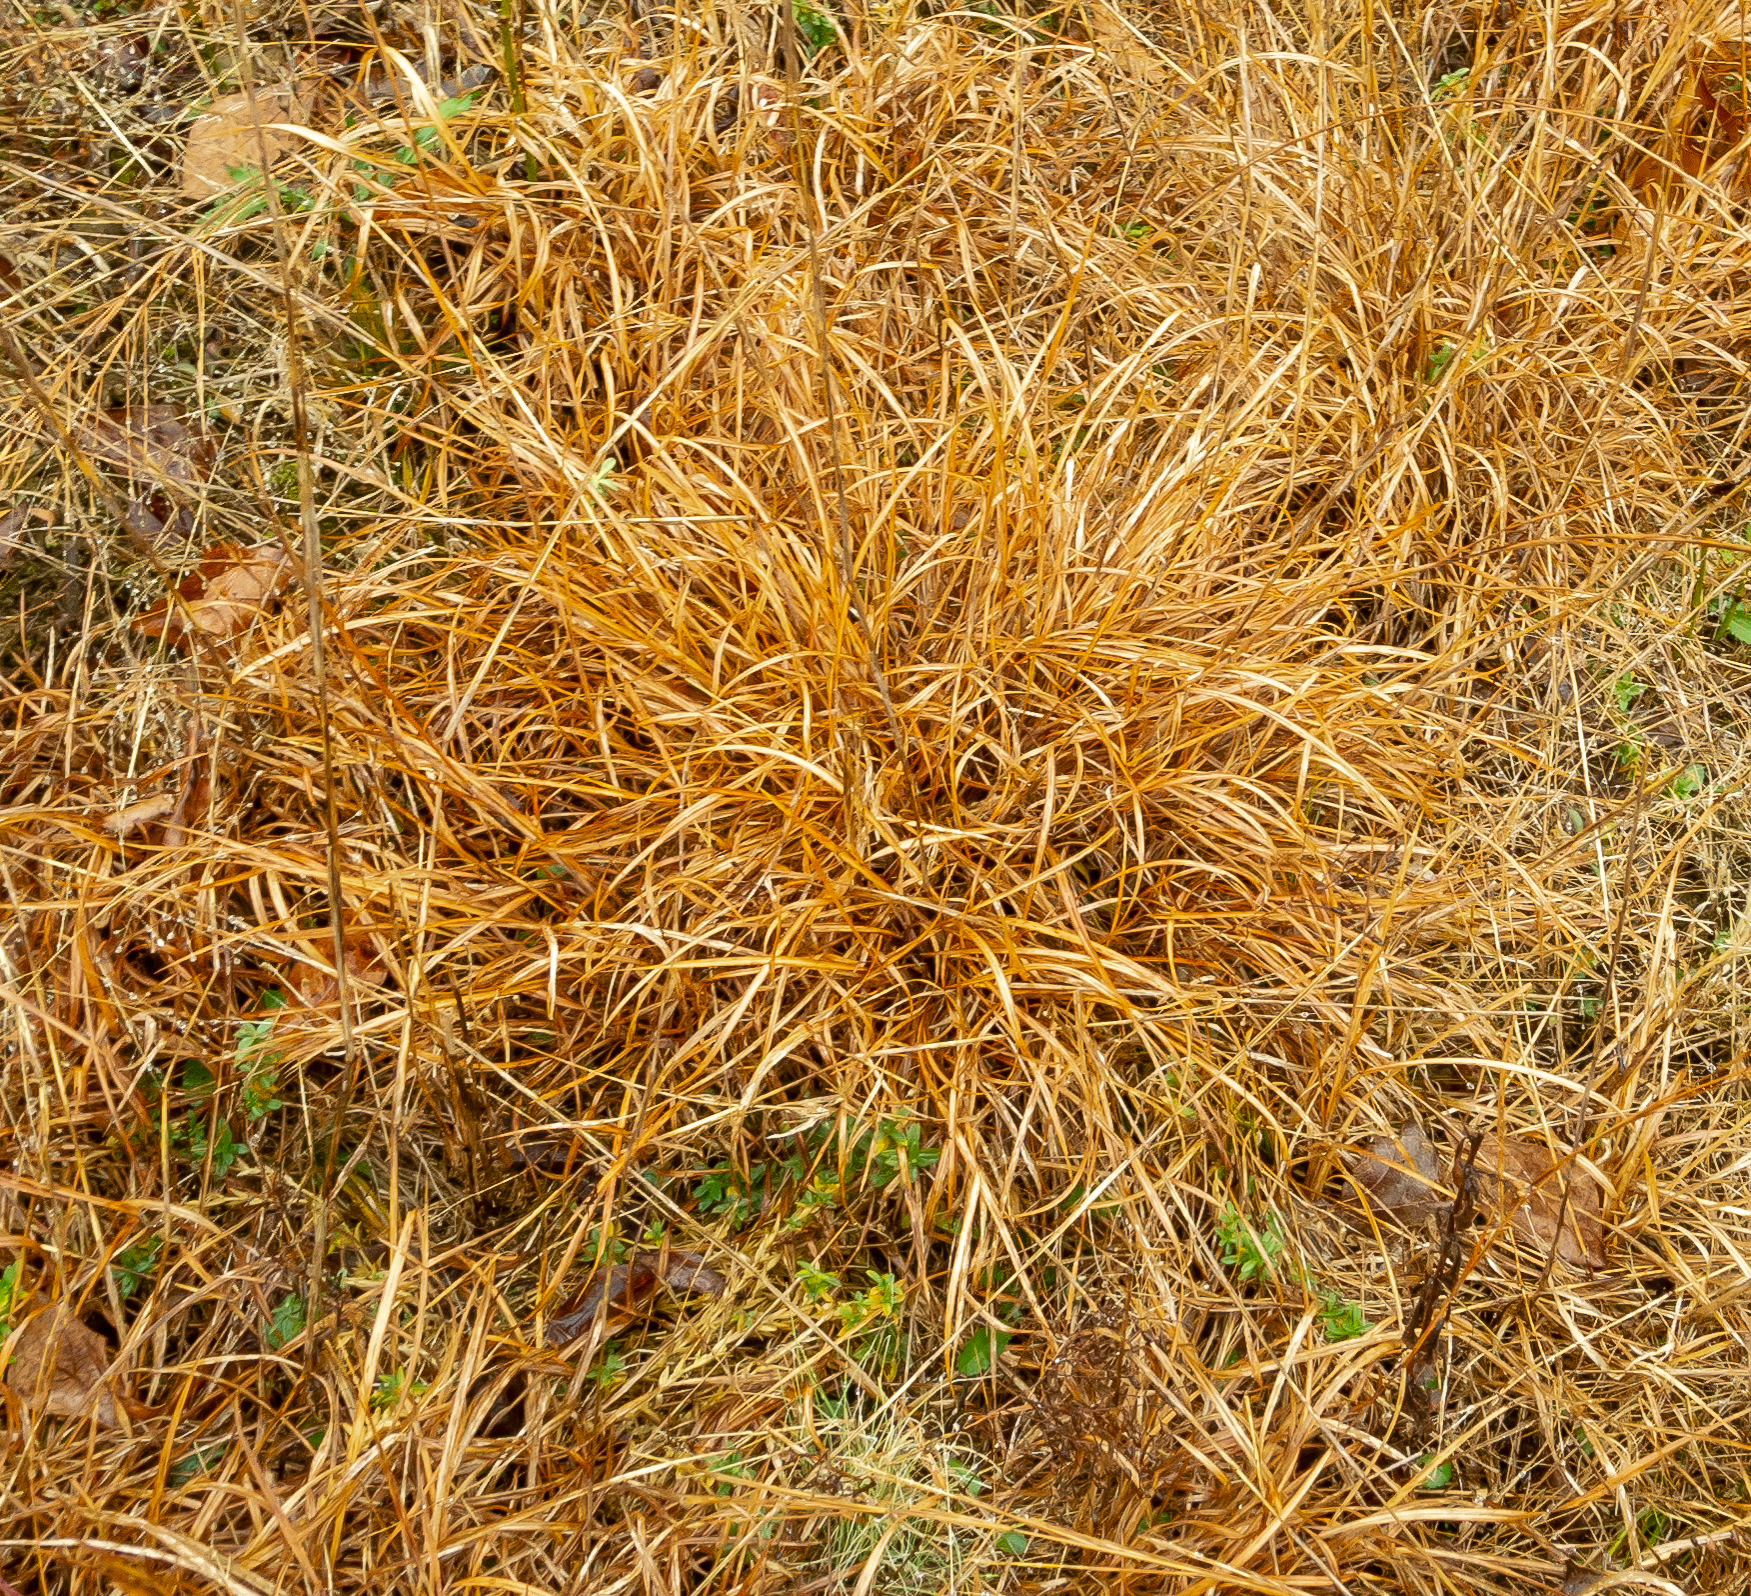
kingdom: Plantae
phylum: Tracheophyta
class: Liliopsida
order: Poales
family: Poaceae
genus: Schizachyrium
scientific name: Schizachyrium scoparium
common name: Little bluestem
